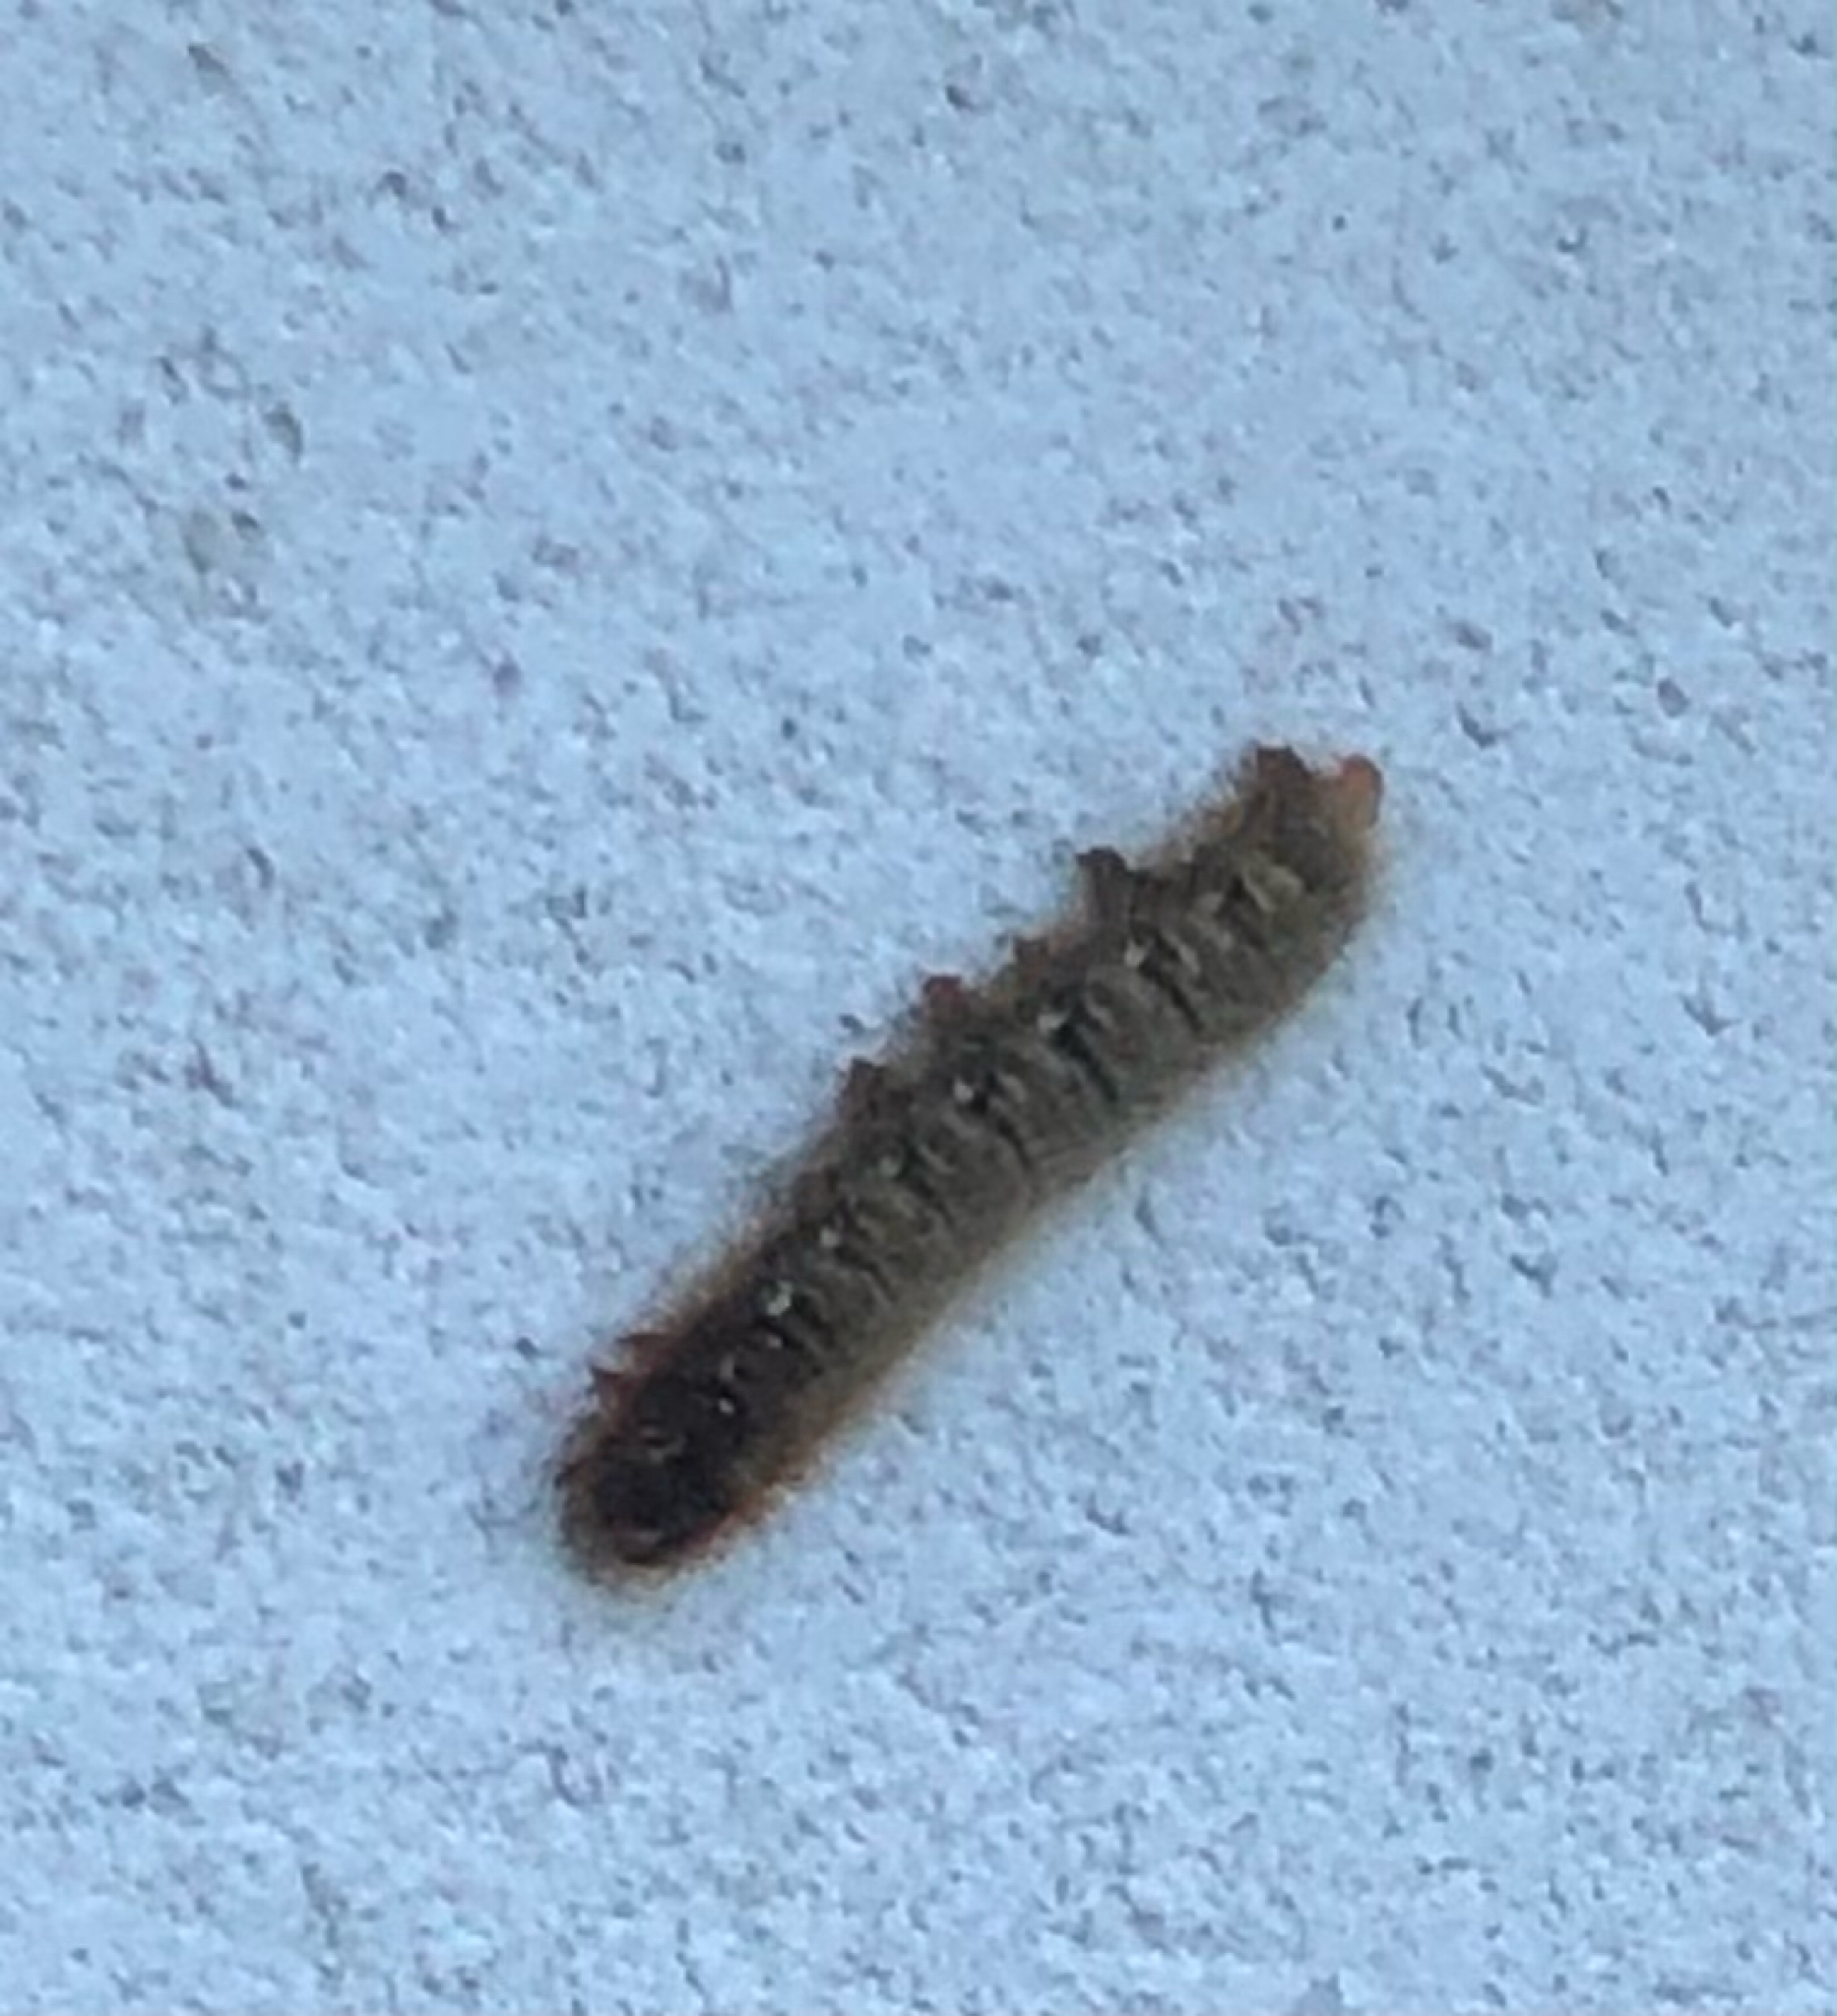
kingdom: Animalia
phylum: Arthropoda
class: Insecta
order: Lepidoptera
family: Lasiocampidae
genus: Lasiocampa
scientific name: Lasiocampa quercus
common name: Oak eggar
